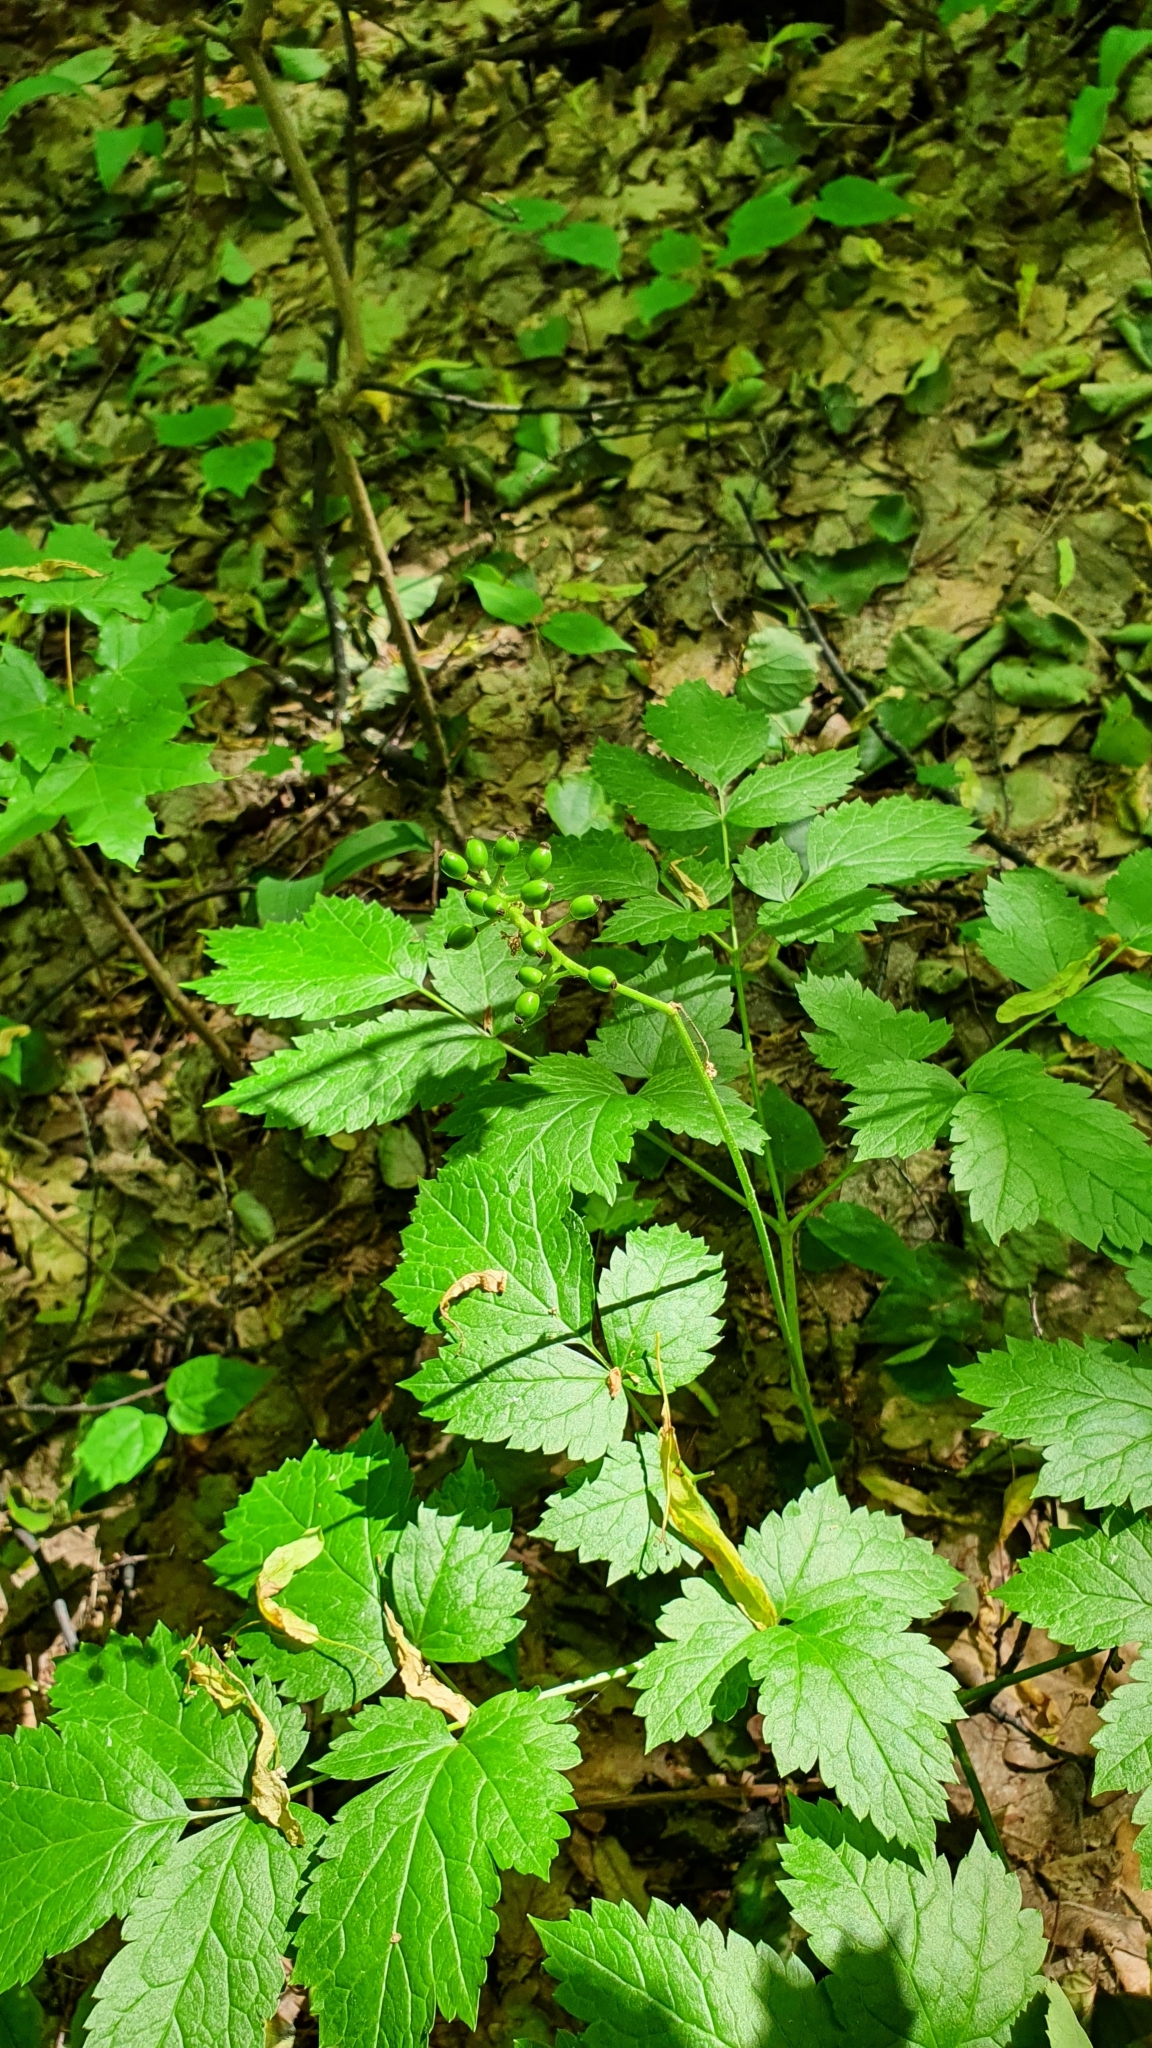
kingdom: Plantae
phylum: Tracheophyta
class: Magnoliopsida
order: Ranunculales
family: Ranunculaceae
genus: Actaea
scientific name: Actaea spicata
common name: Baneberry
